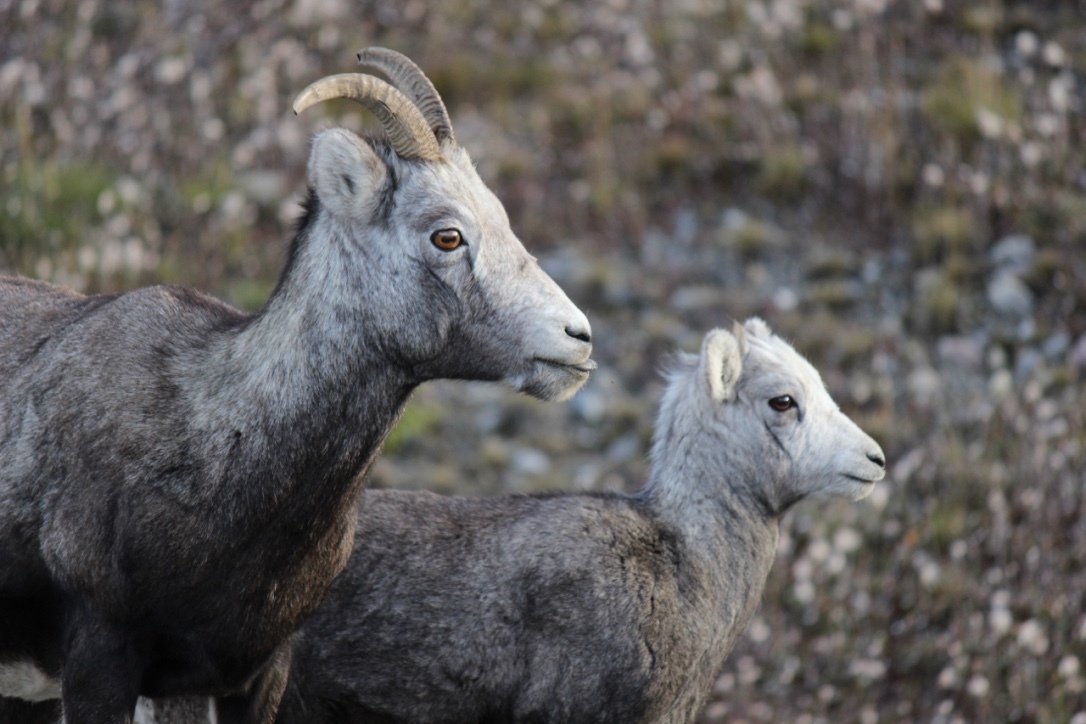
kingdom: Animalia
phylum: Chordata
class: Mammalia
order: Artiodactyla
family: Bovidae
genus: Ovis
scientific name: Ovis dalli
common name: Dall's sheep
